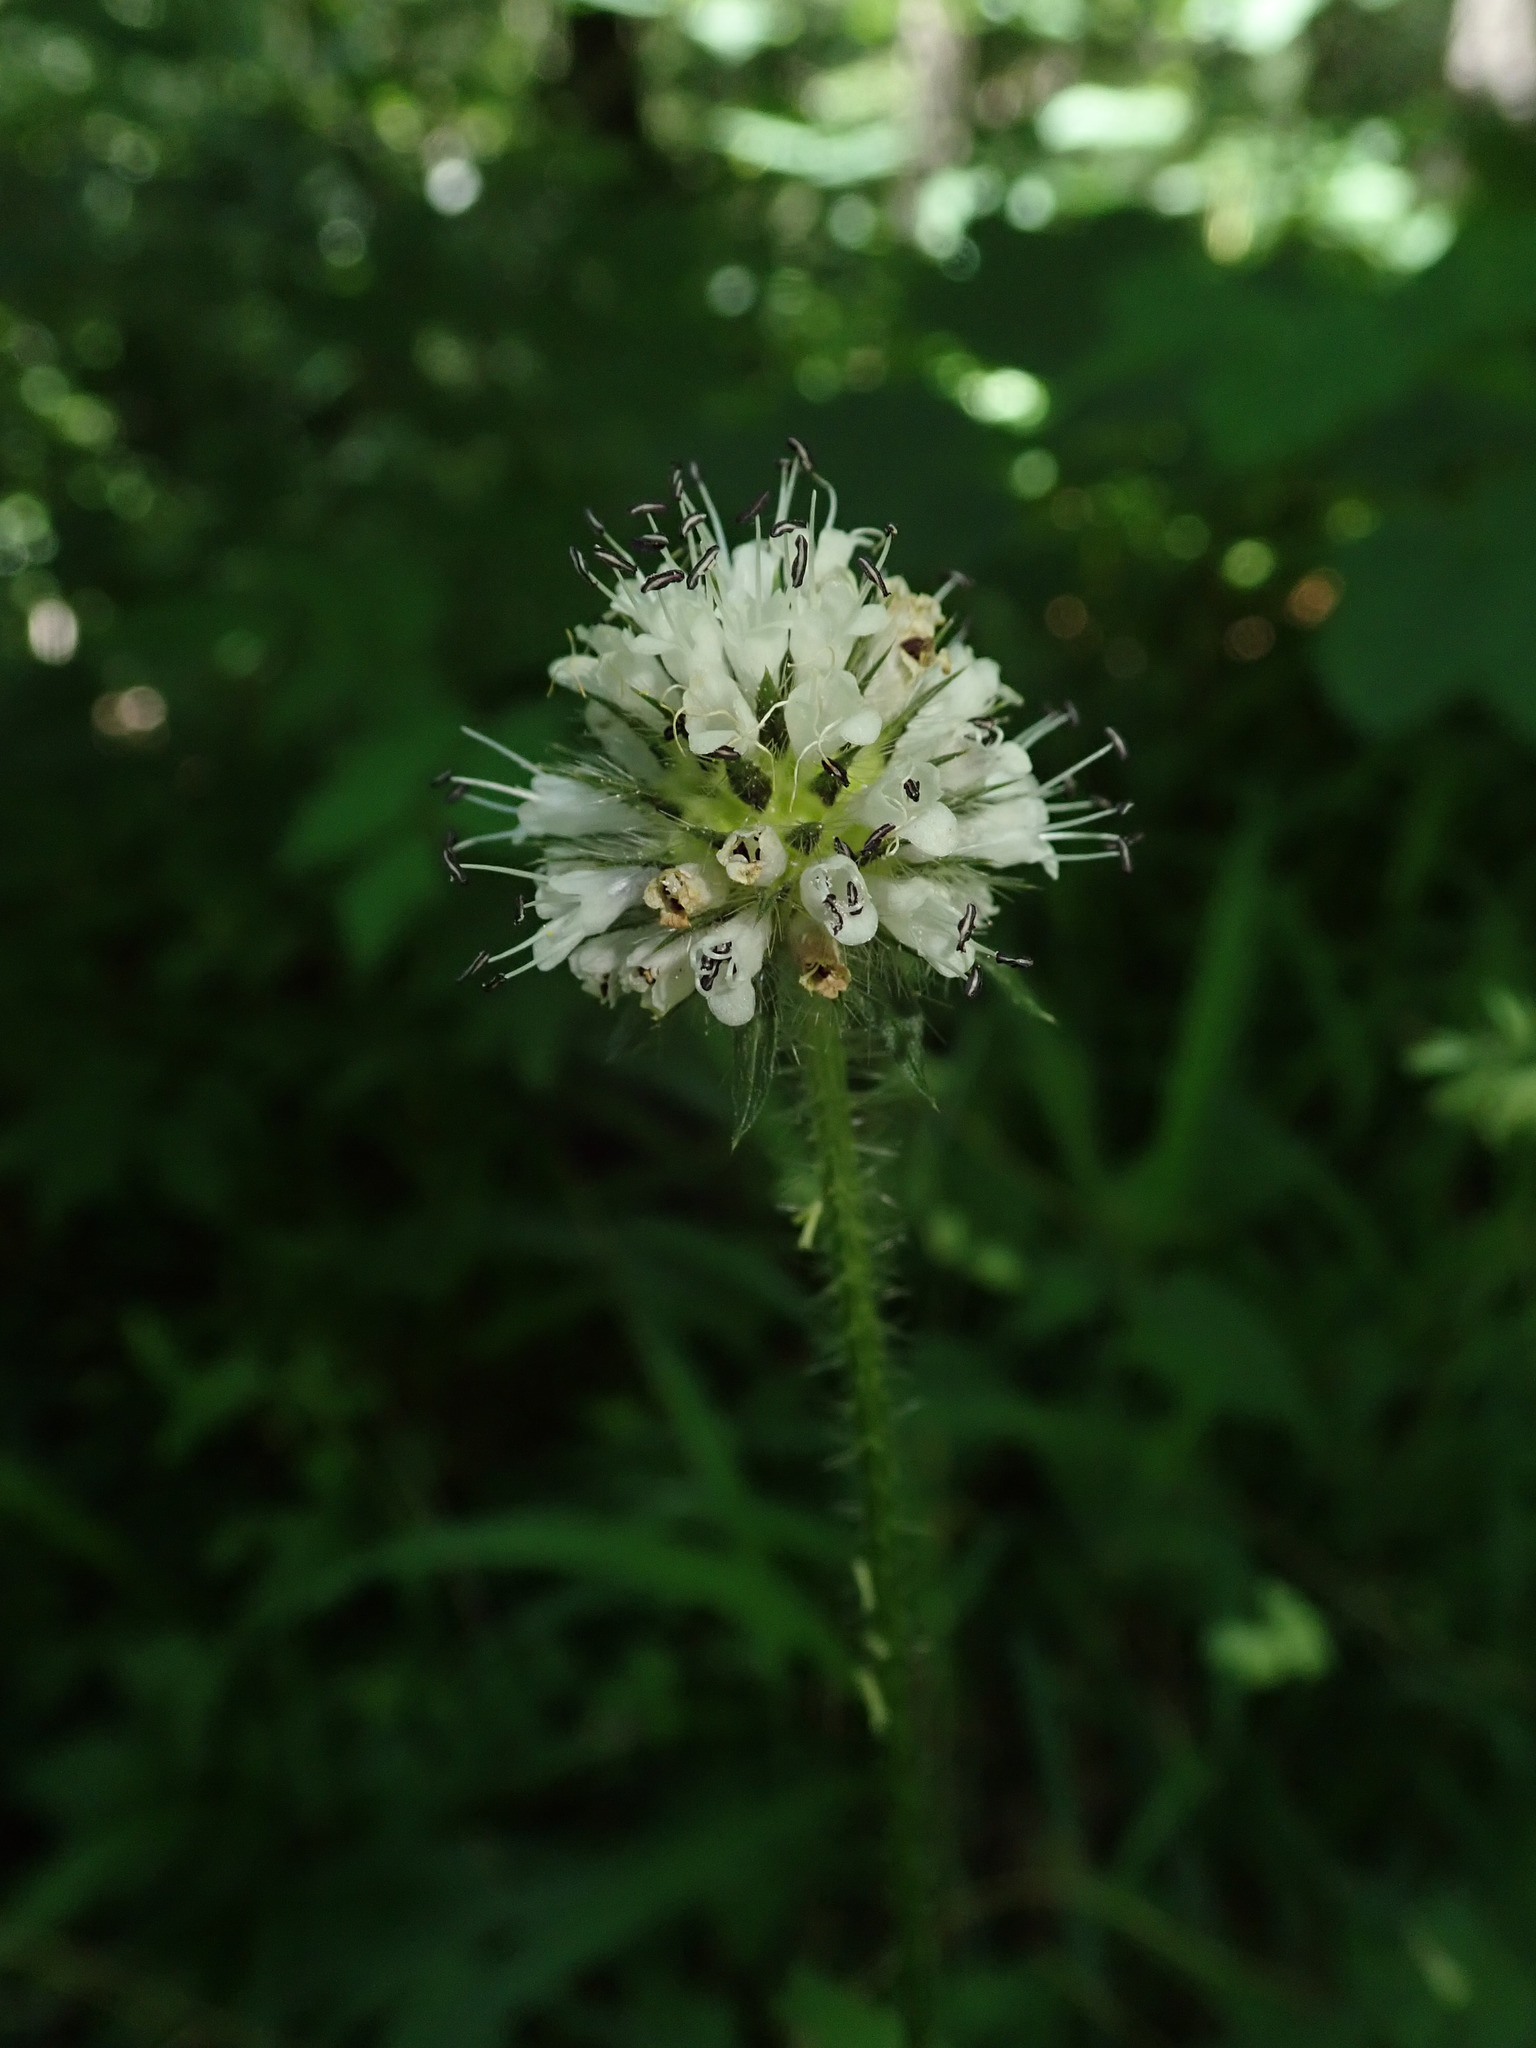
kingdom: Plantae
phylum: Tracheophyta
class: Magnoliopsida
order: Dipsacales
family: Caprifoliaceae
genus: Dipsacus
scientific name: Dipsacus pilosus
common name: Small teasel
